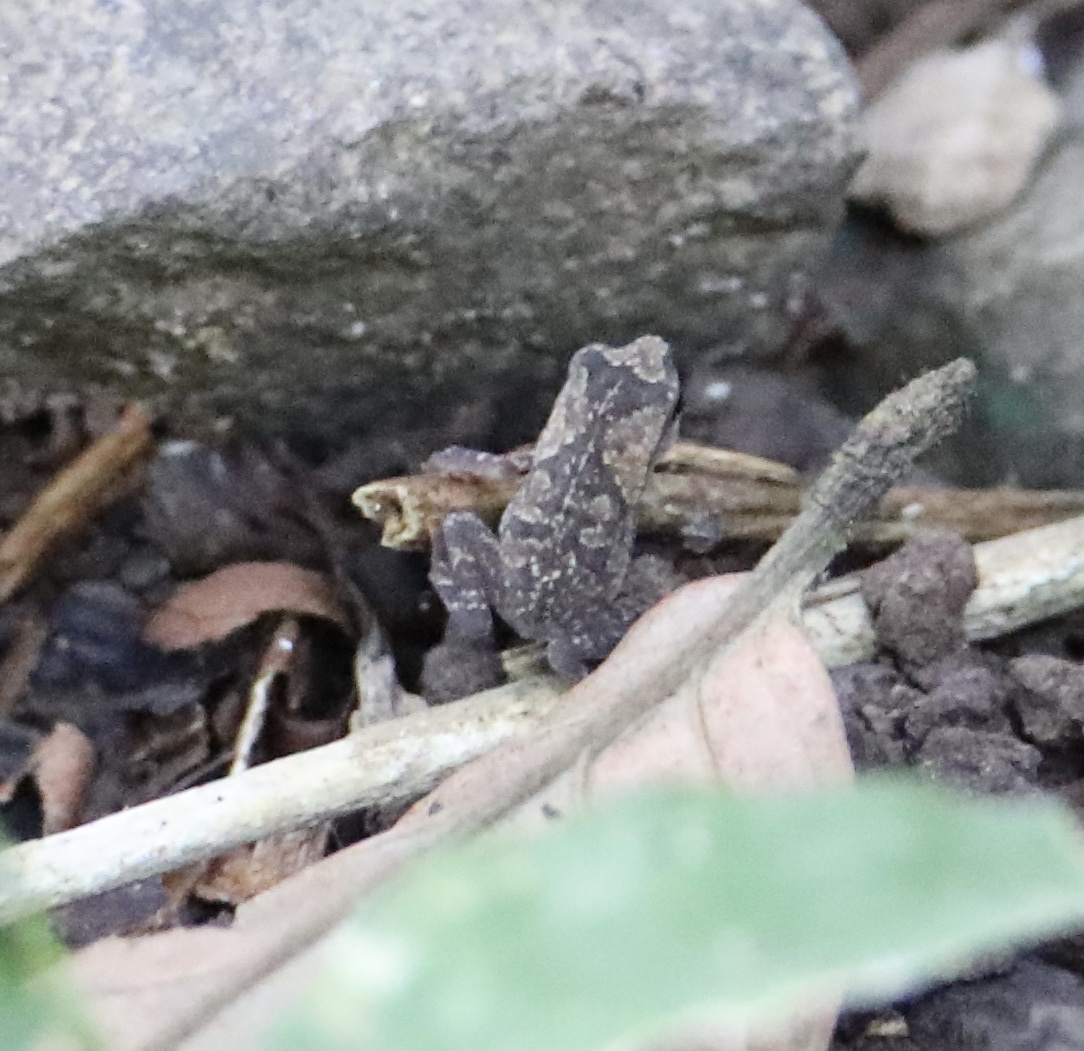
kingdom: Animalia
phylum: Chordata
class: Amphibia
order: Anura
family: Bufonidae
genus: Rhinella
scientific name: Rhinella alata
